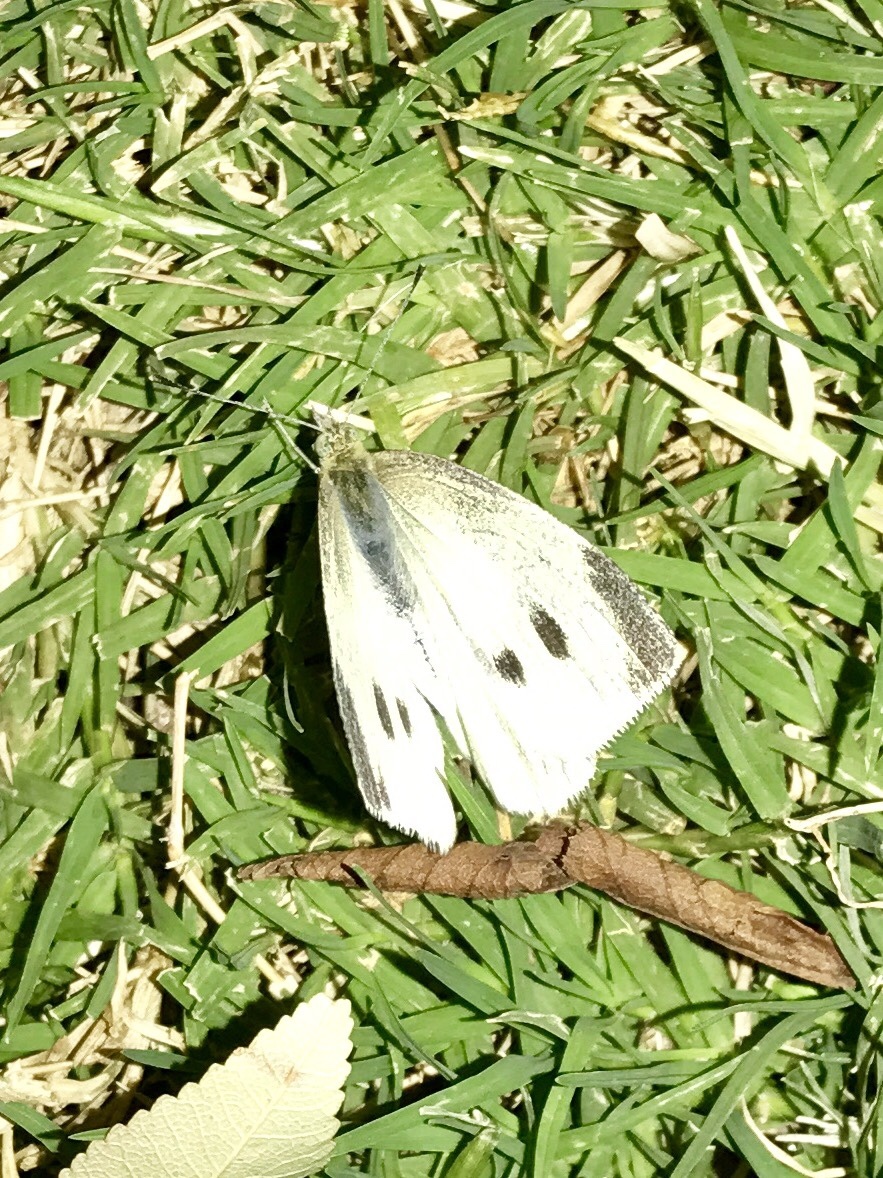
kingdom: Animalia
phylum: Arthropoda
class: Insecta
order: Lepidoptera
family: Pieridae
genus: Pieris
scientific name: Pieris rapae
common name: Small white
